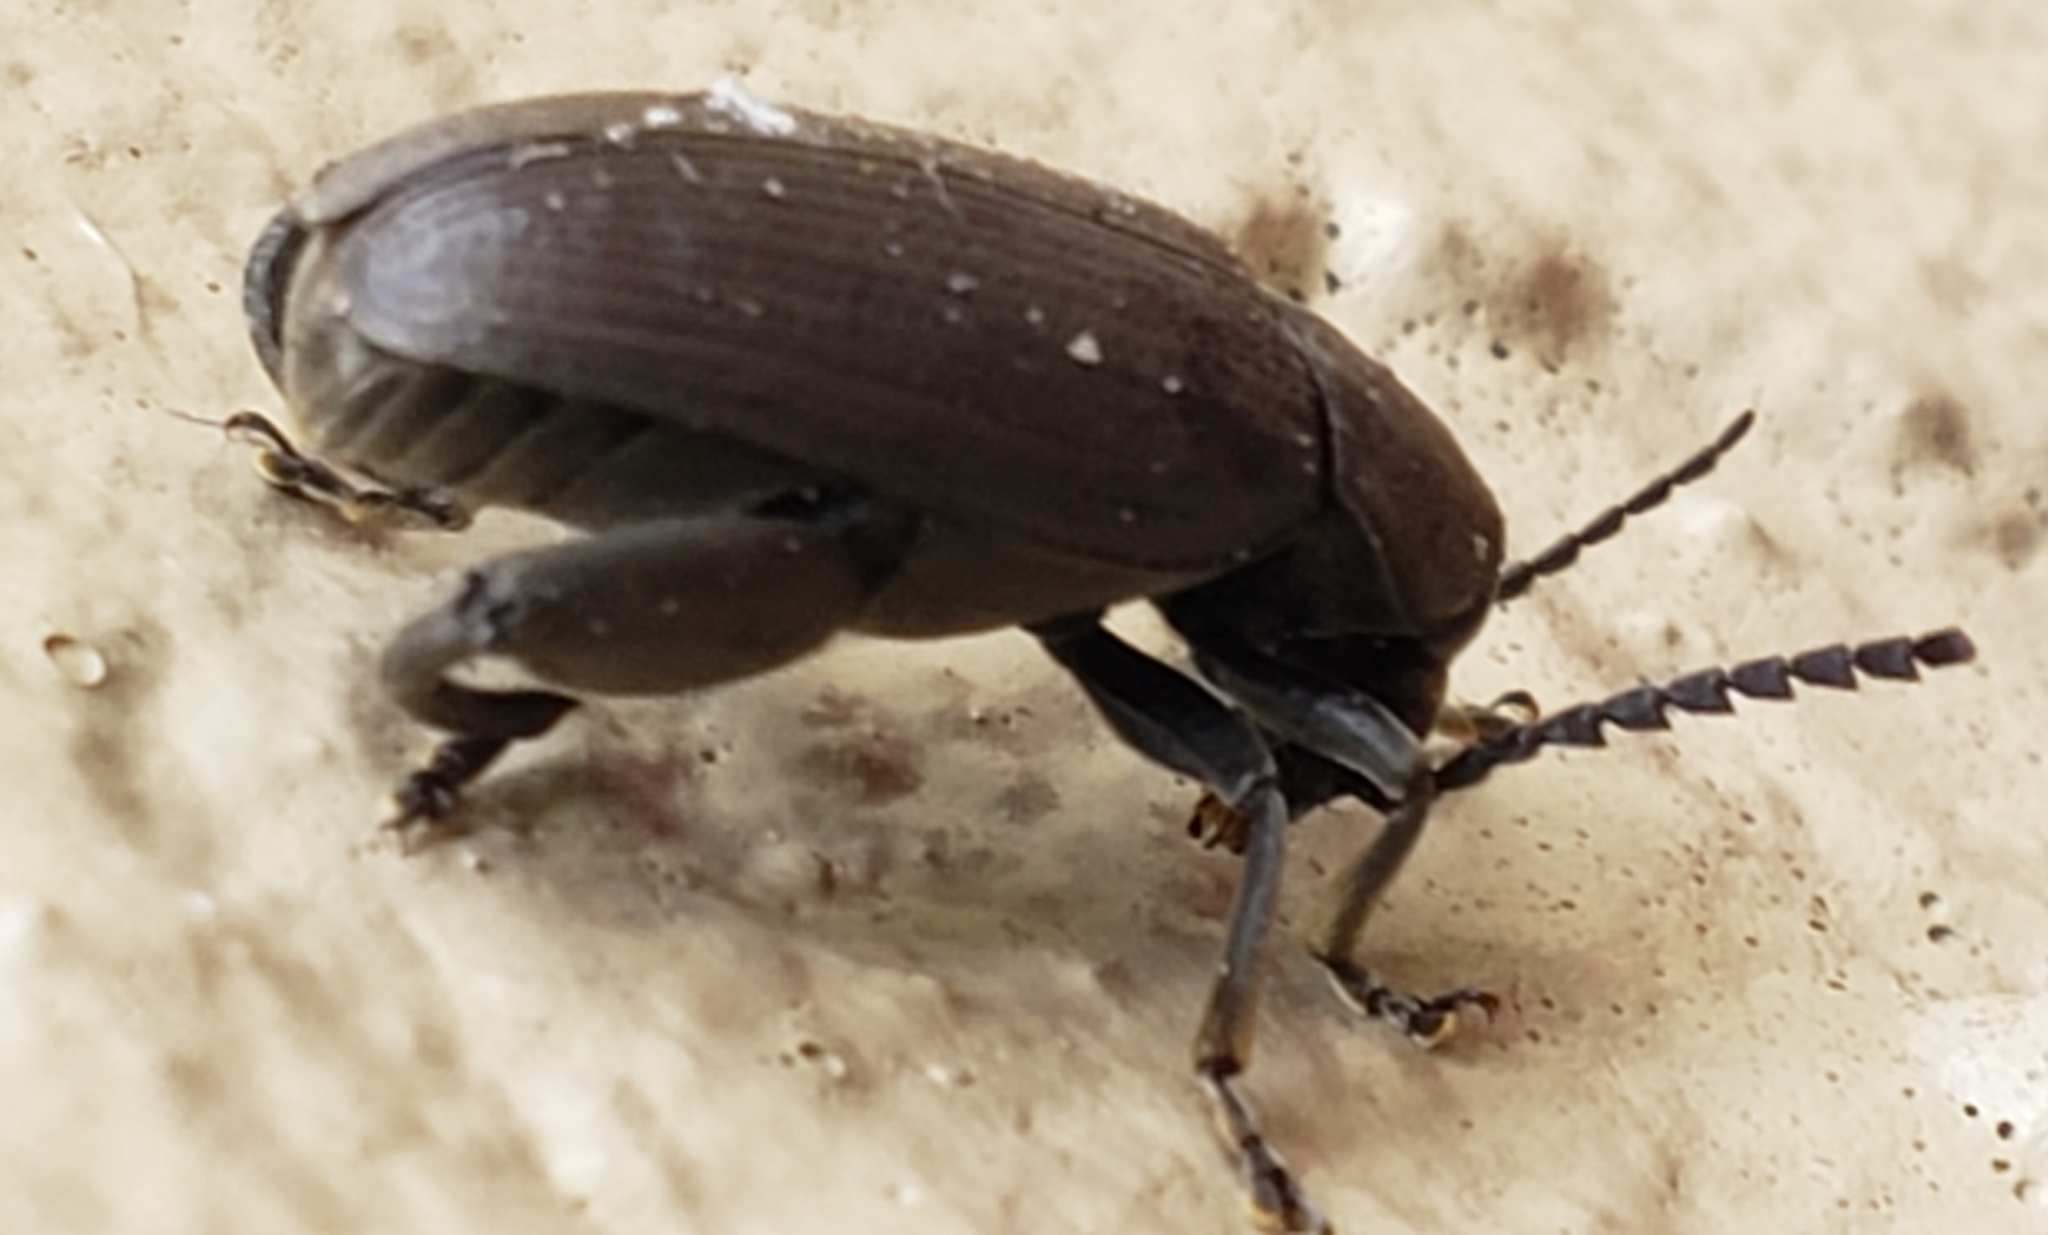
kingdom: Animalia
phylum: Arthropoda
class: Insecta
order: Coleoptera
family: Chrysomelidae
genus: Pachymerus
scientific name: Pachymerus
